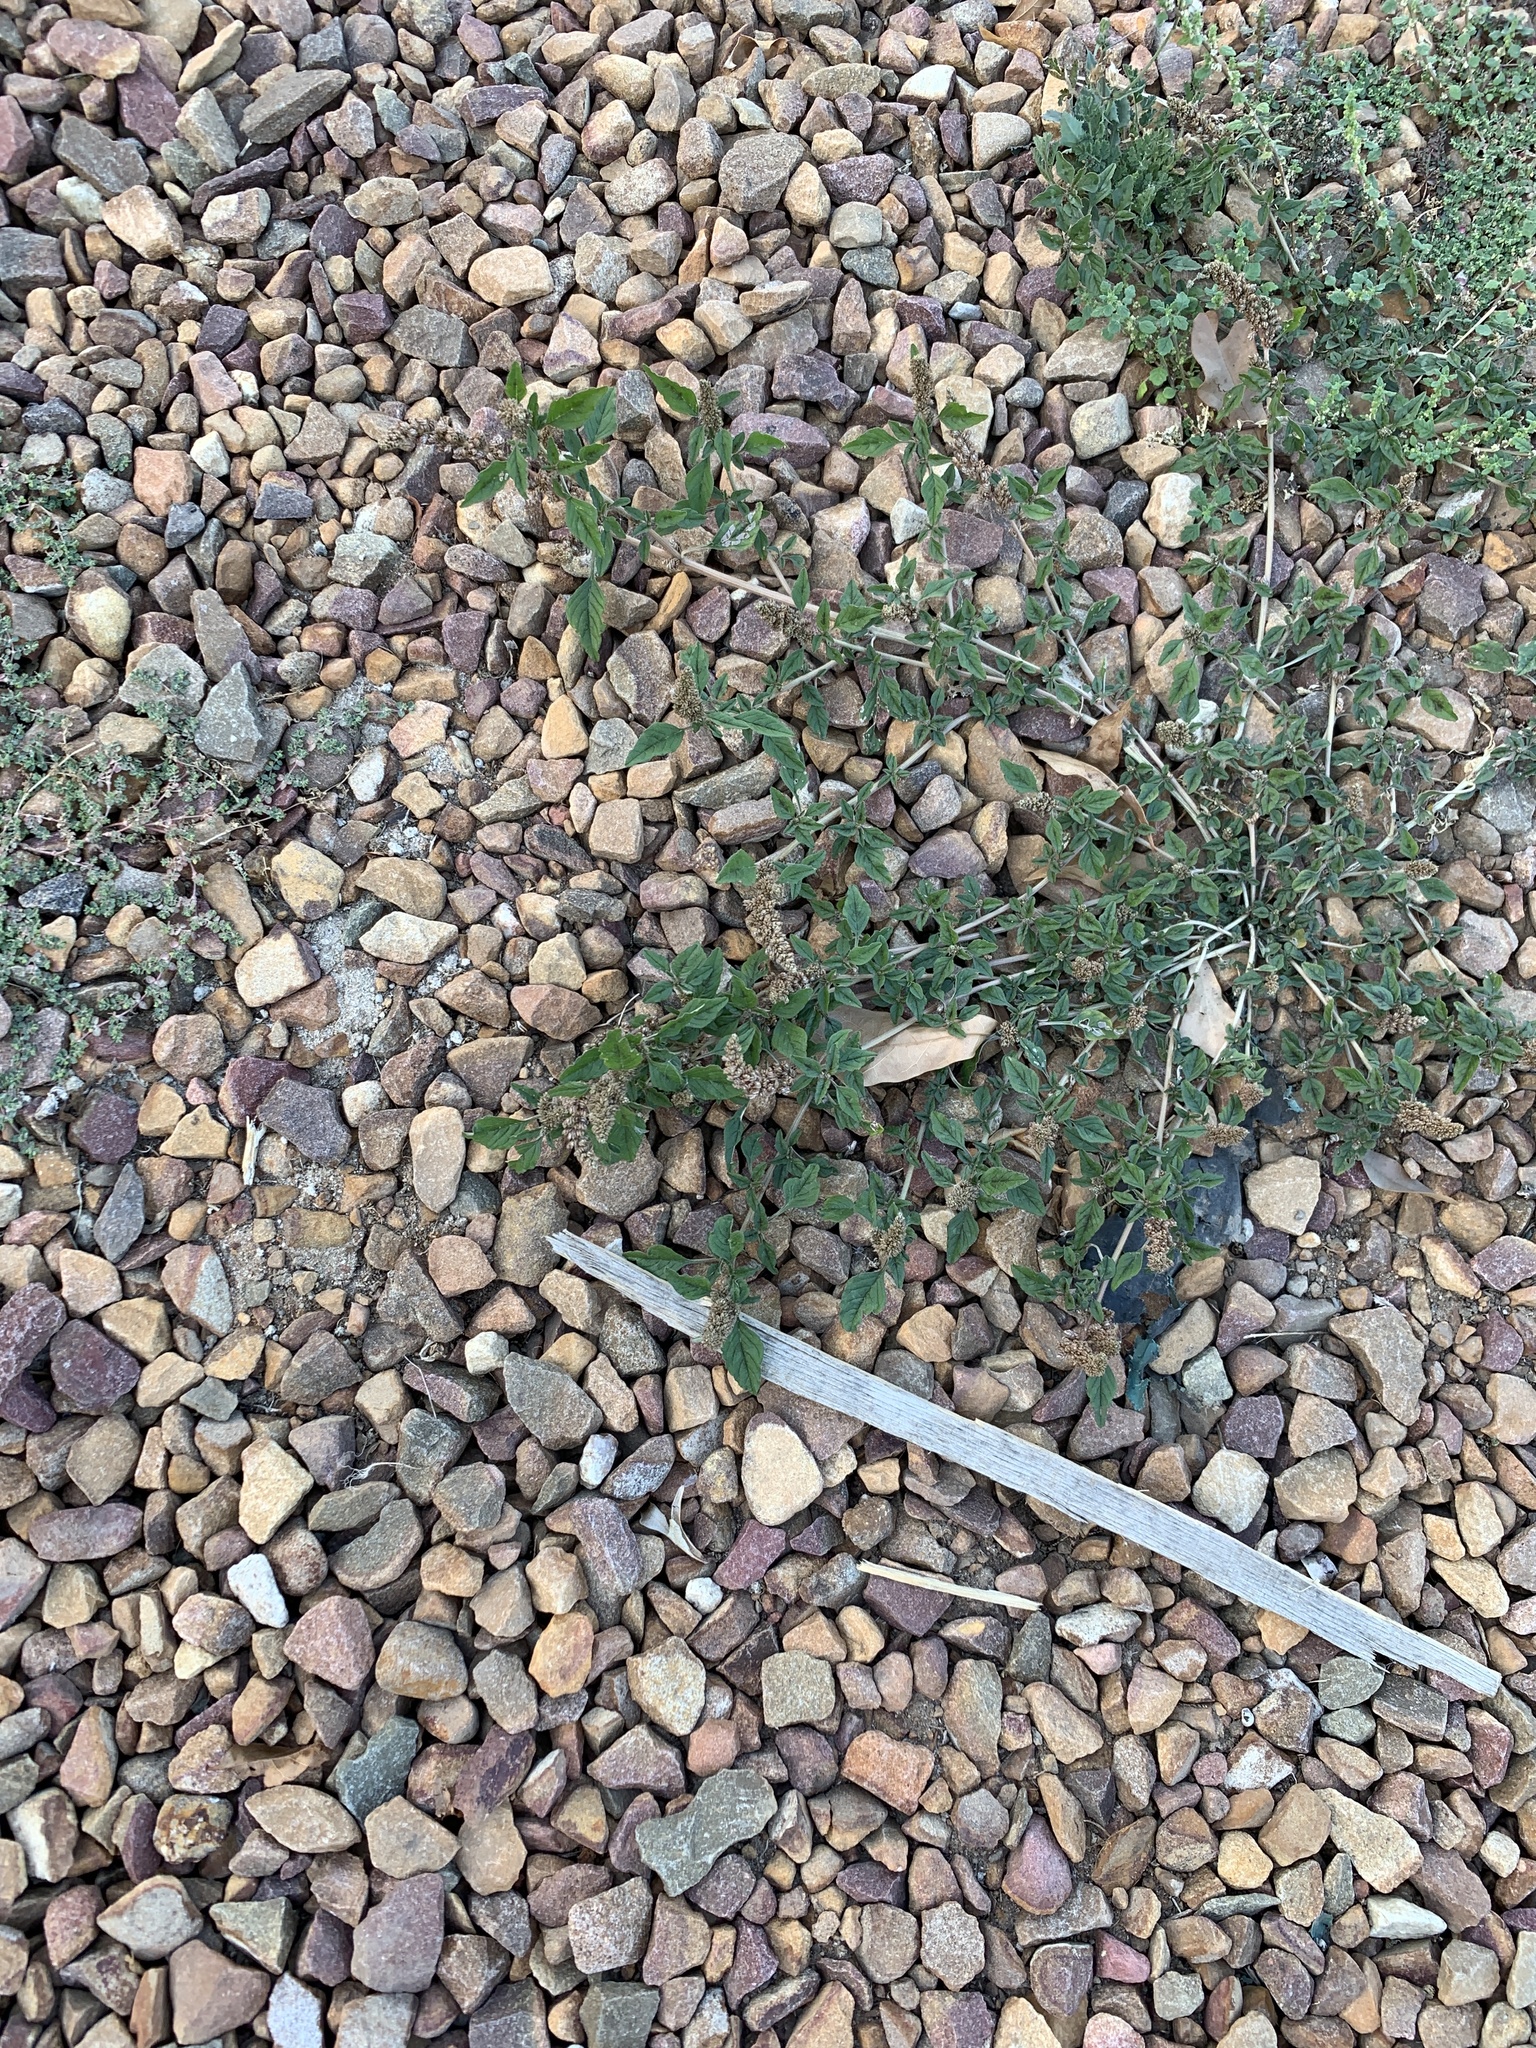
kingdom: Plantae
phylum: Tracheophyta
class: Magnoliopsida
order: Caryophyllales
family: Amaranthaceae
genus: Amaranthus
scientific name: Amaranthus deflexus
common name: Perennial pigweed
